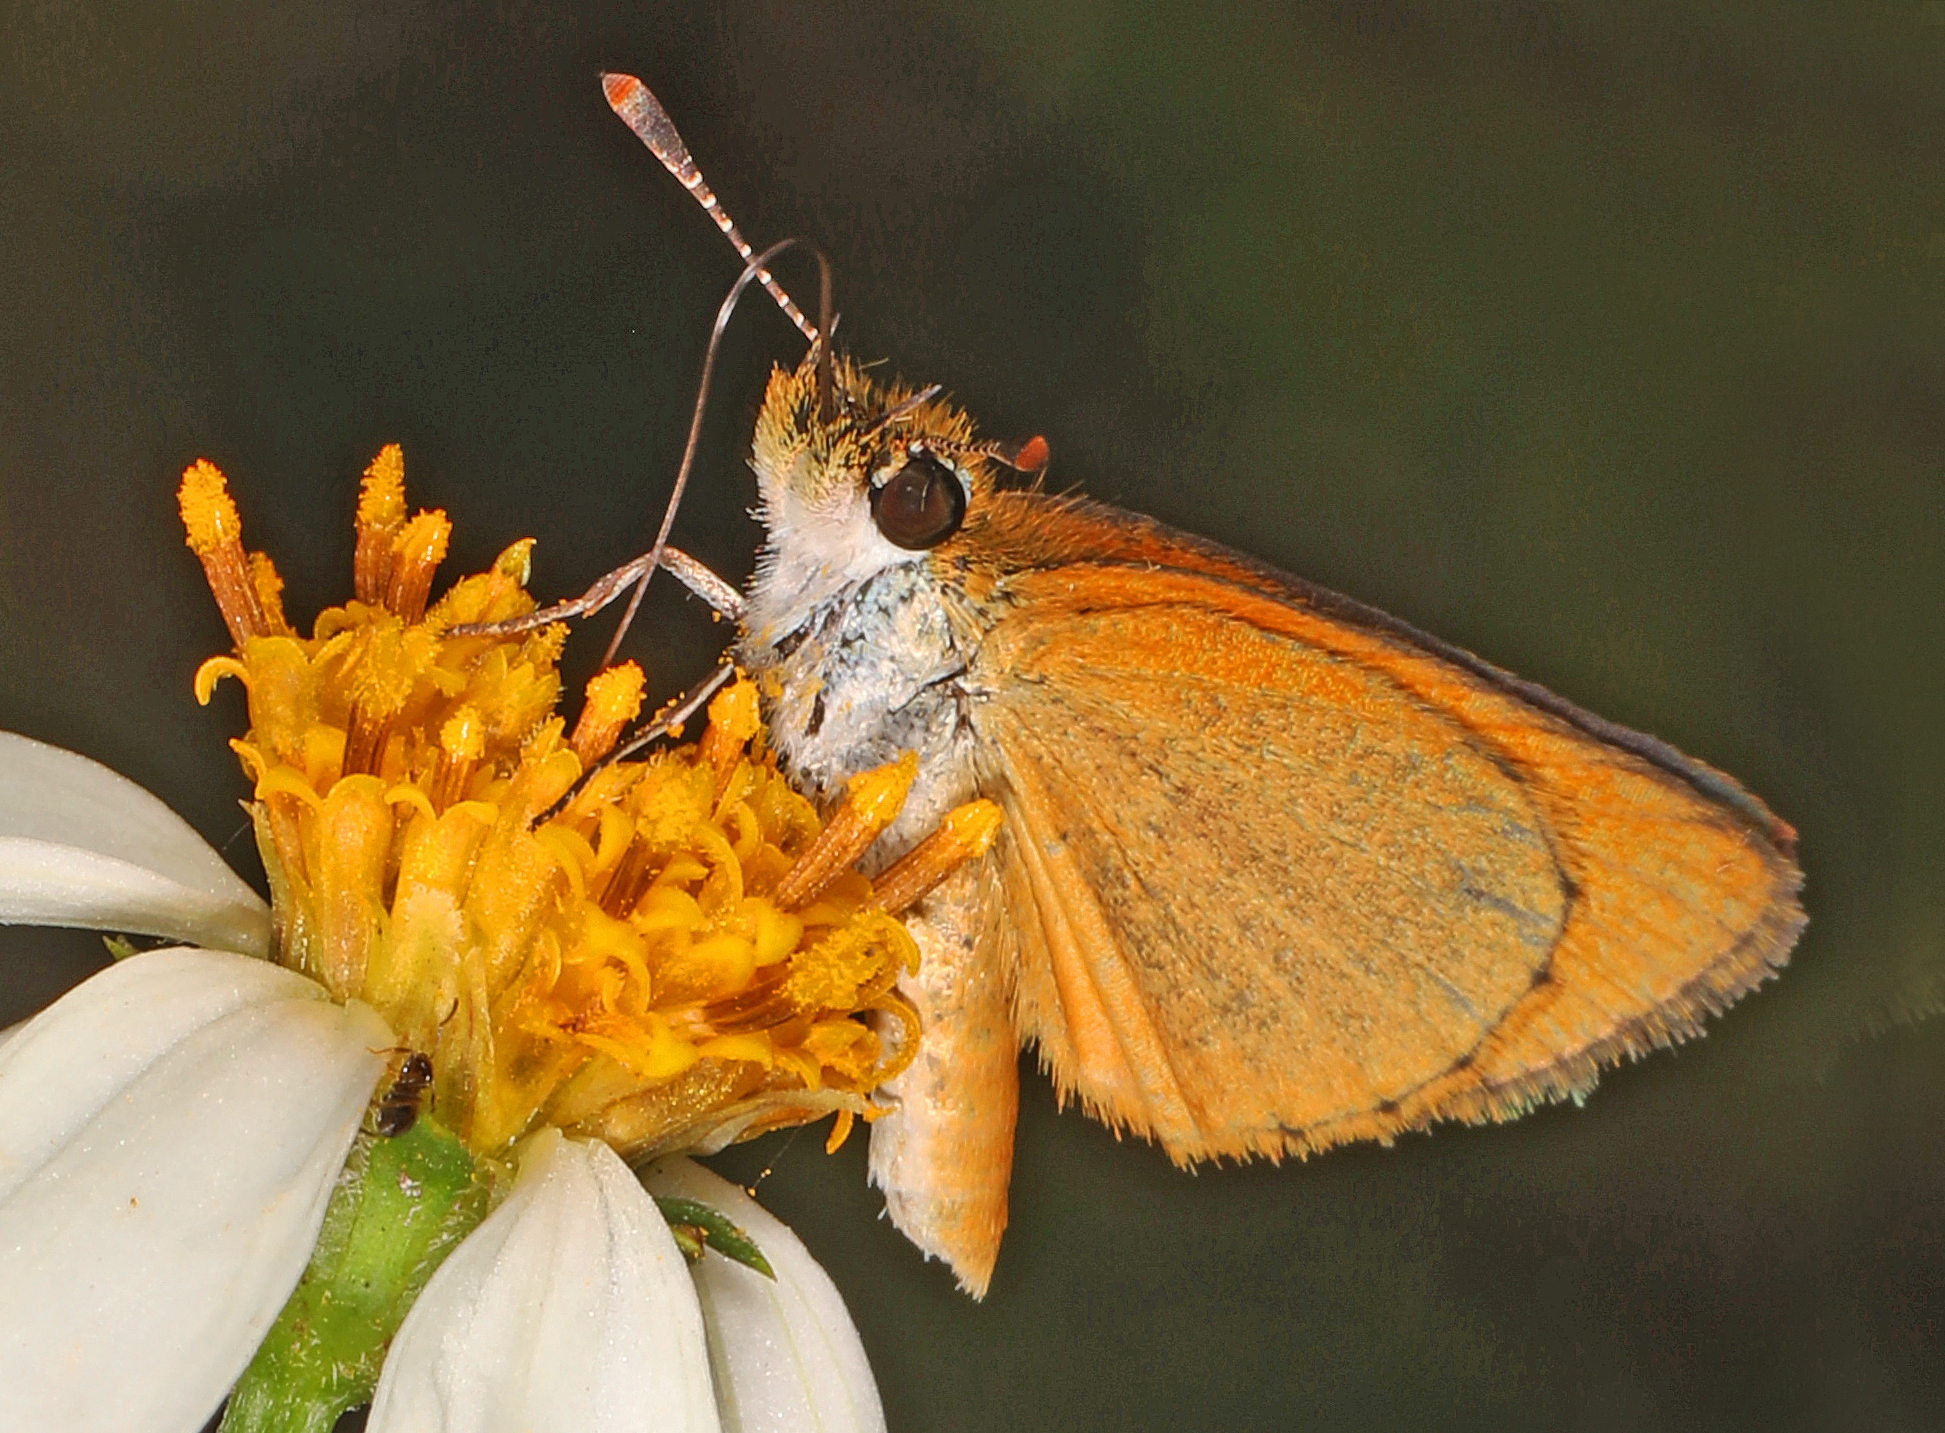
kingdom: Animalia
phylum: Arthropoda
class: Insecta
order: Lepidoptera
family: Hesperiidae
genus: Ancyloxypha
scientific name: Ancyloxypha numitor
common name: Least skipper
